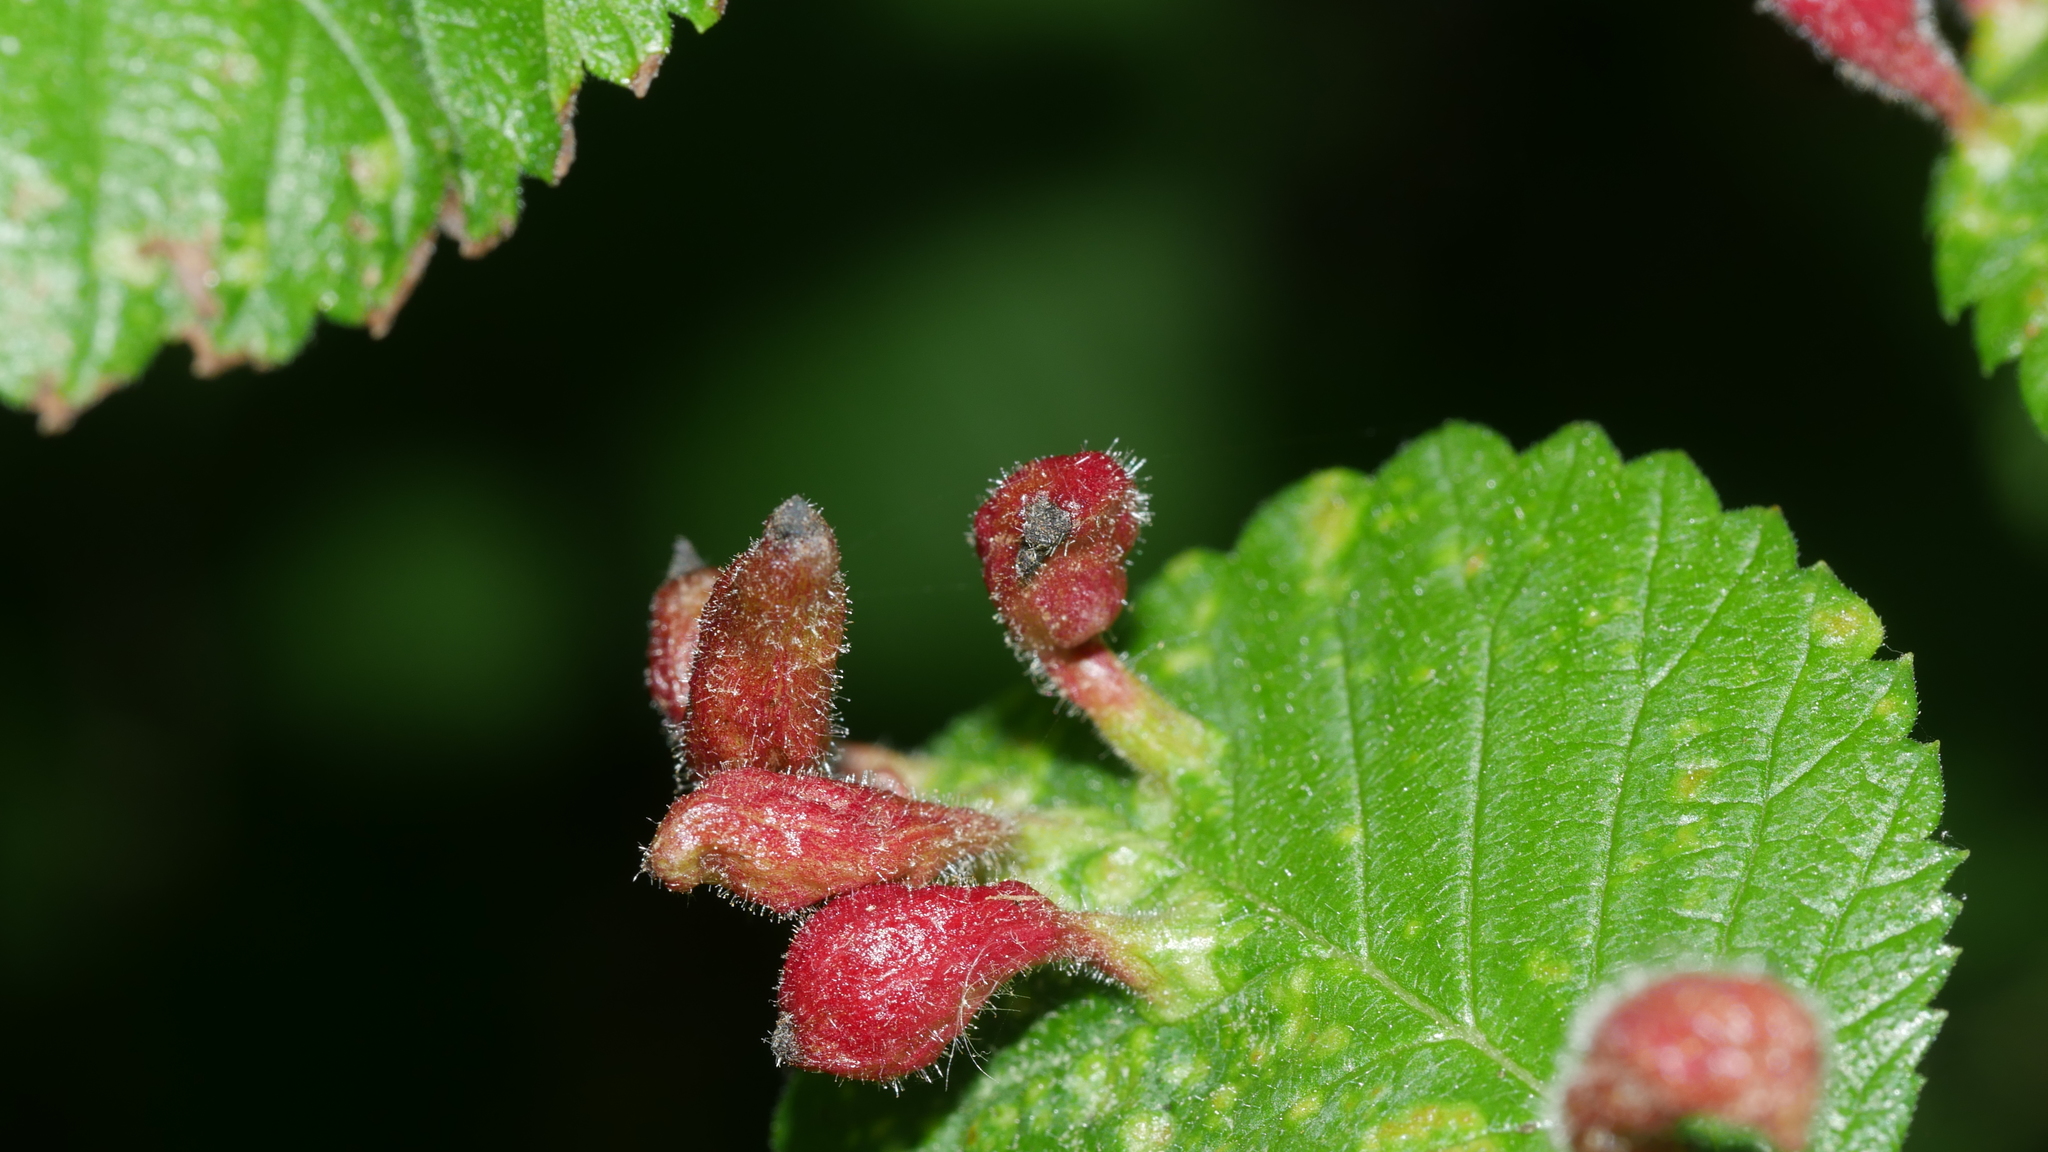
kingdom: Animalia
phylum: Arthropoda
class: Insecta
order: Hemiptera
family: Aphididae
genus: Tetraneura
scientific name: Tetraneura nigriabdominalis
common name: Aphid
